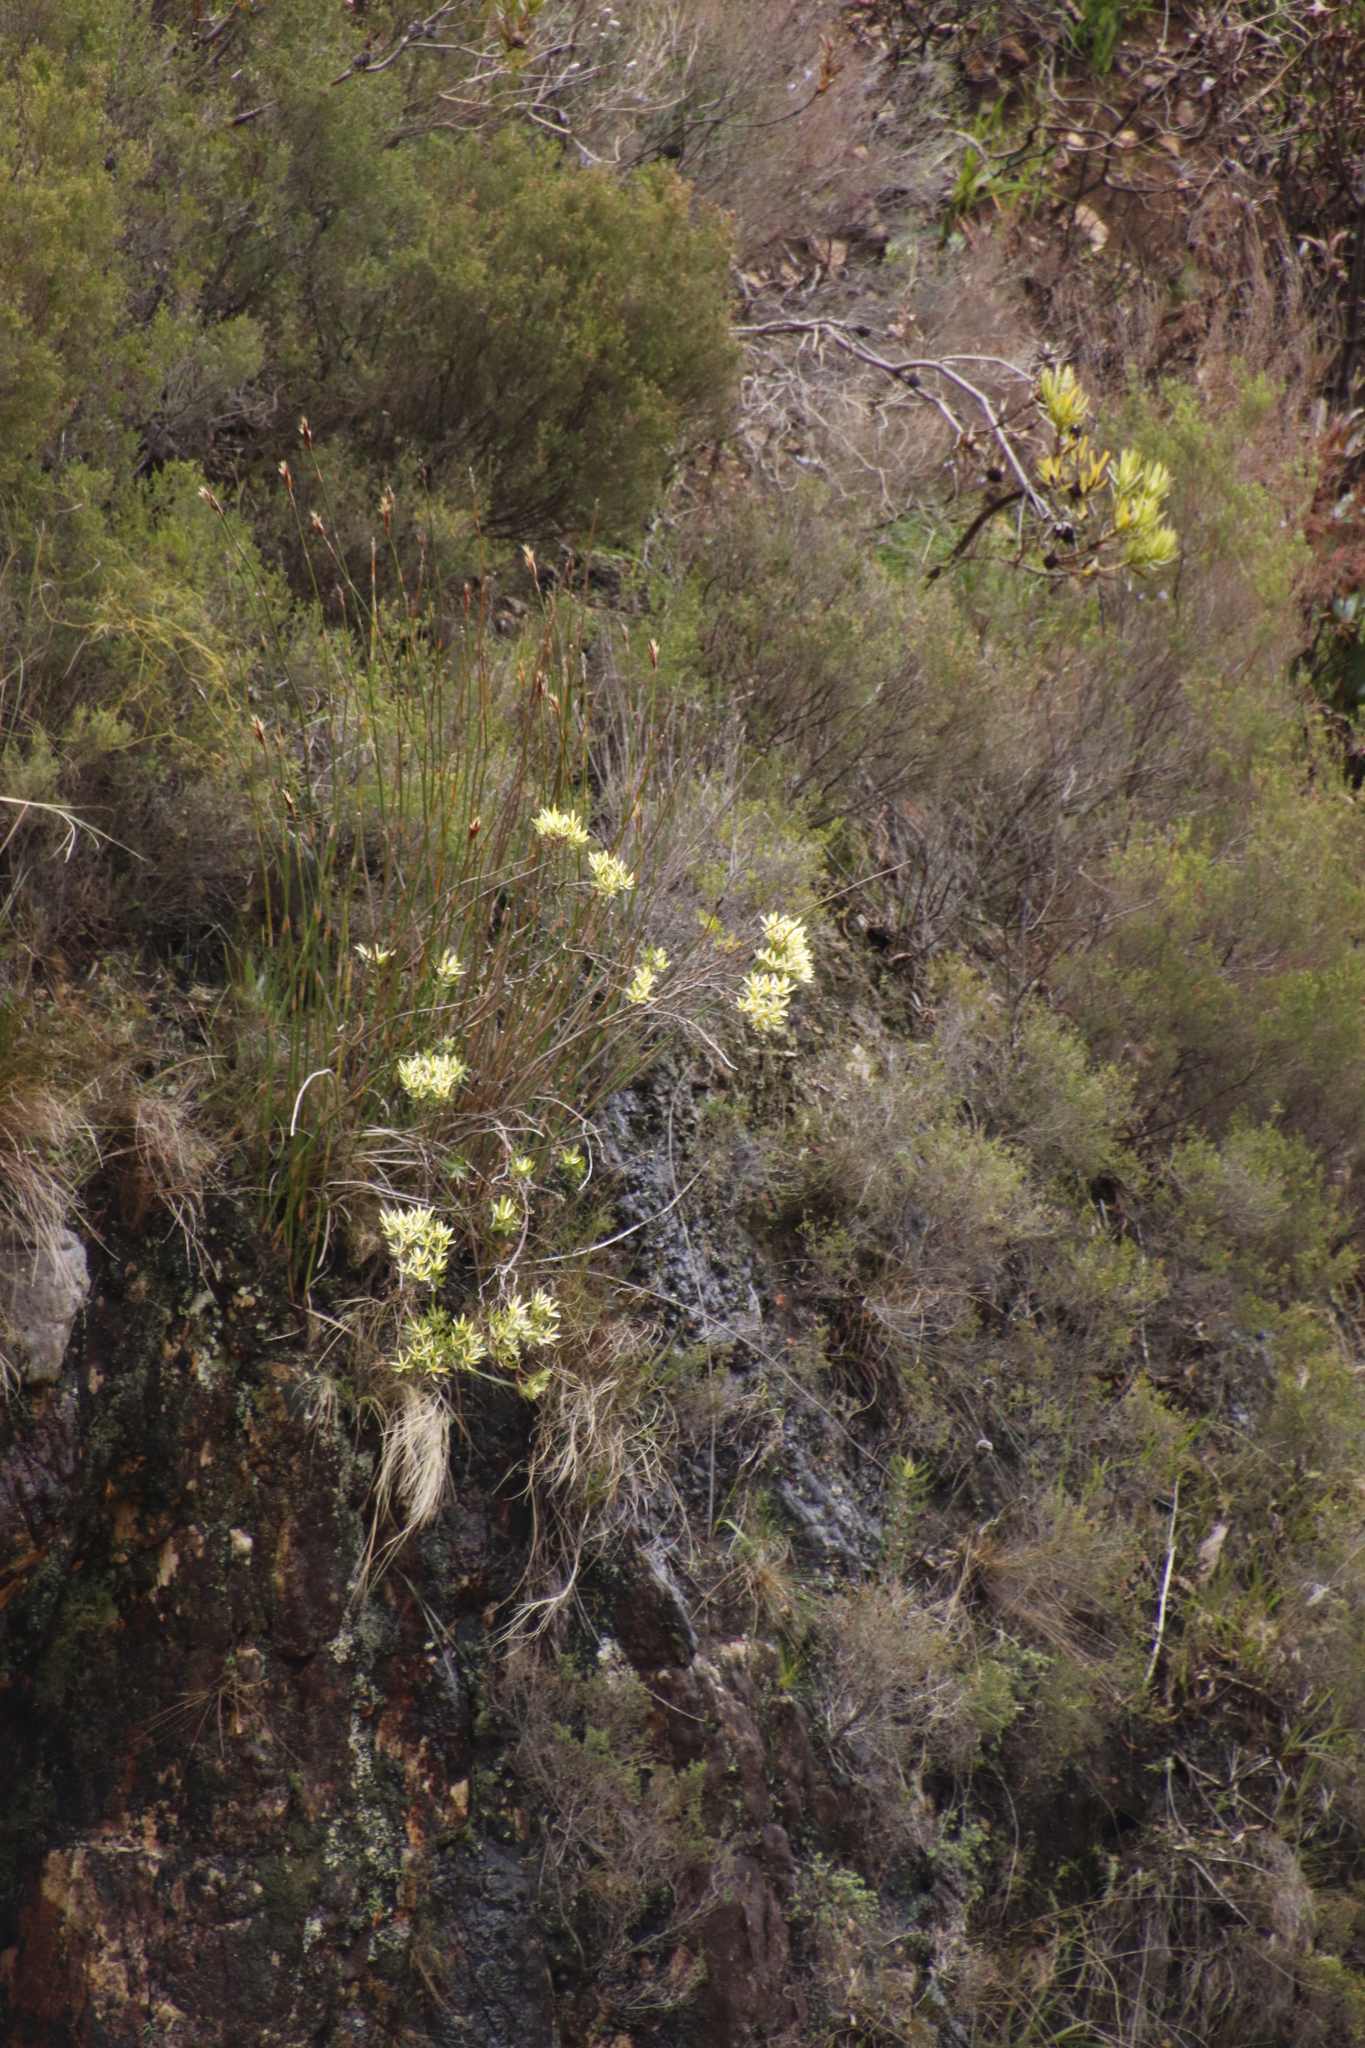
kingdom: Plantae
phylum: Tracheophyta
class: Magnoliopsida
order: Proteales
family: Proteaceae
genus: Leucadendron
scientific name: Leucadendron spissifolium
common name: Spear-leaf conebush
